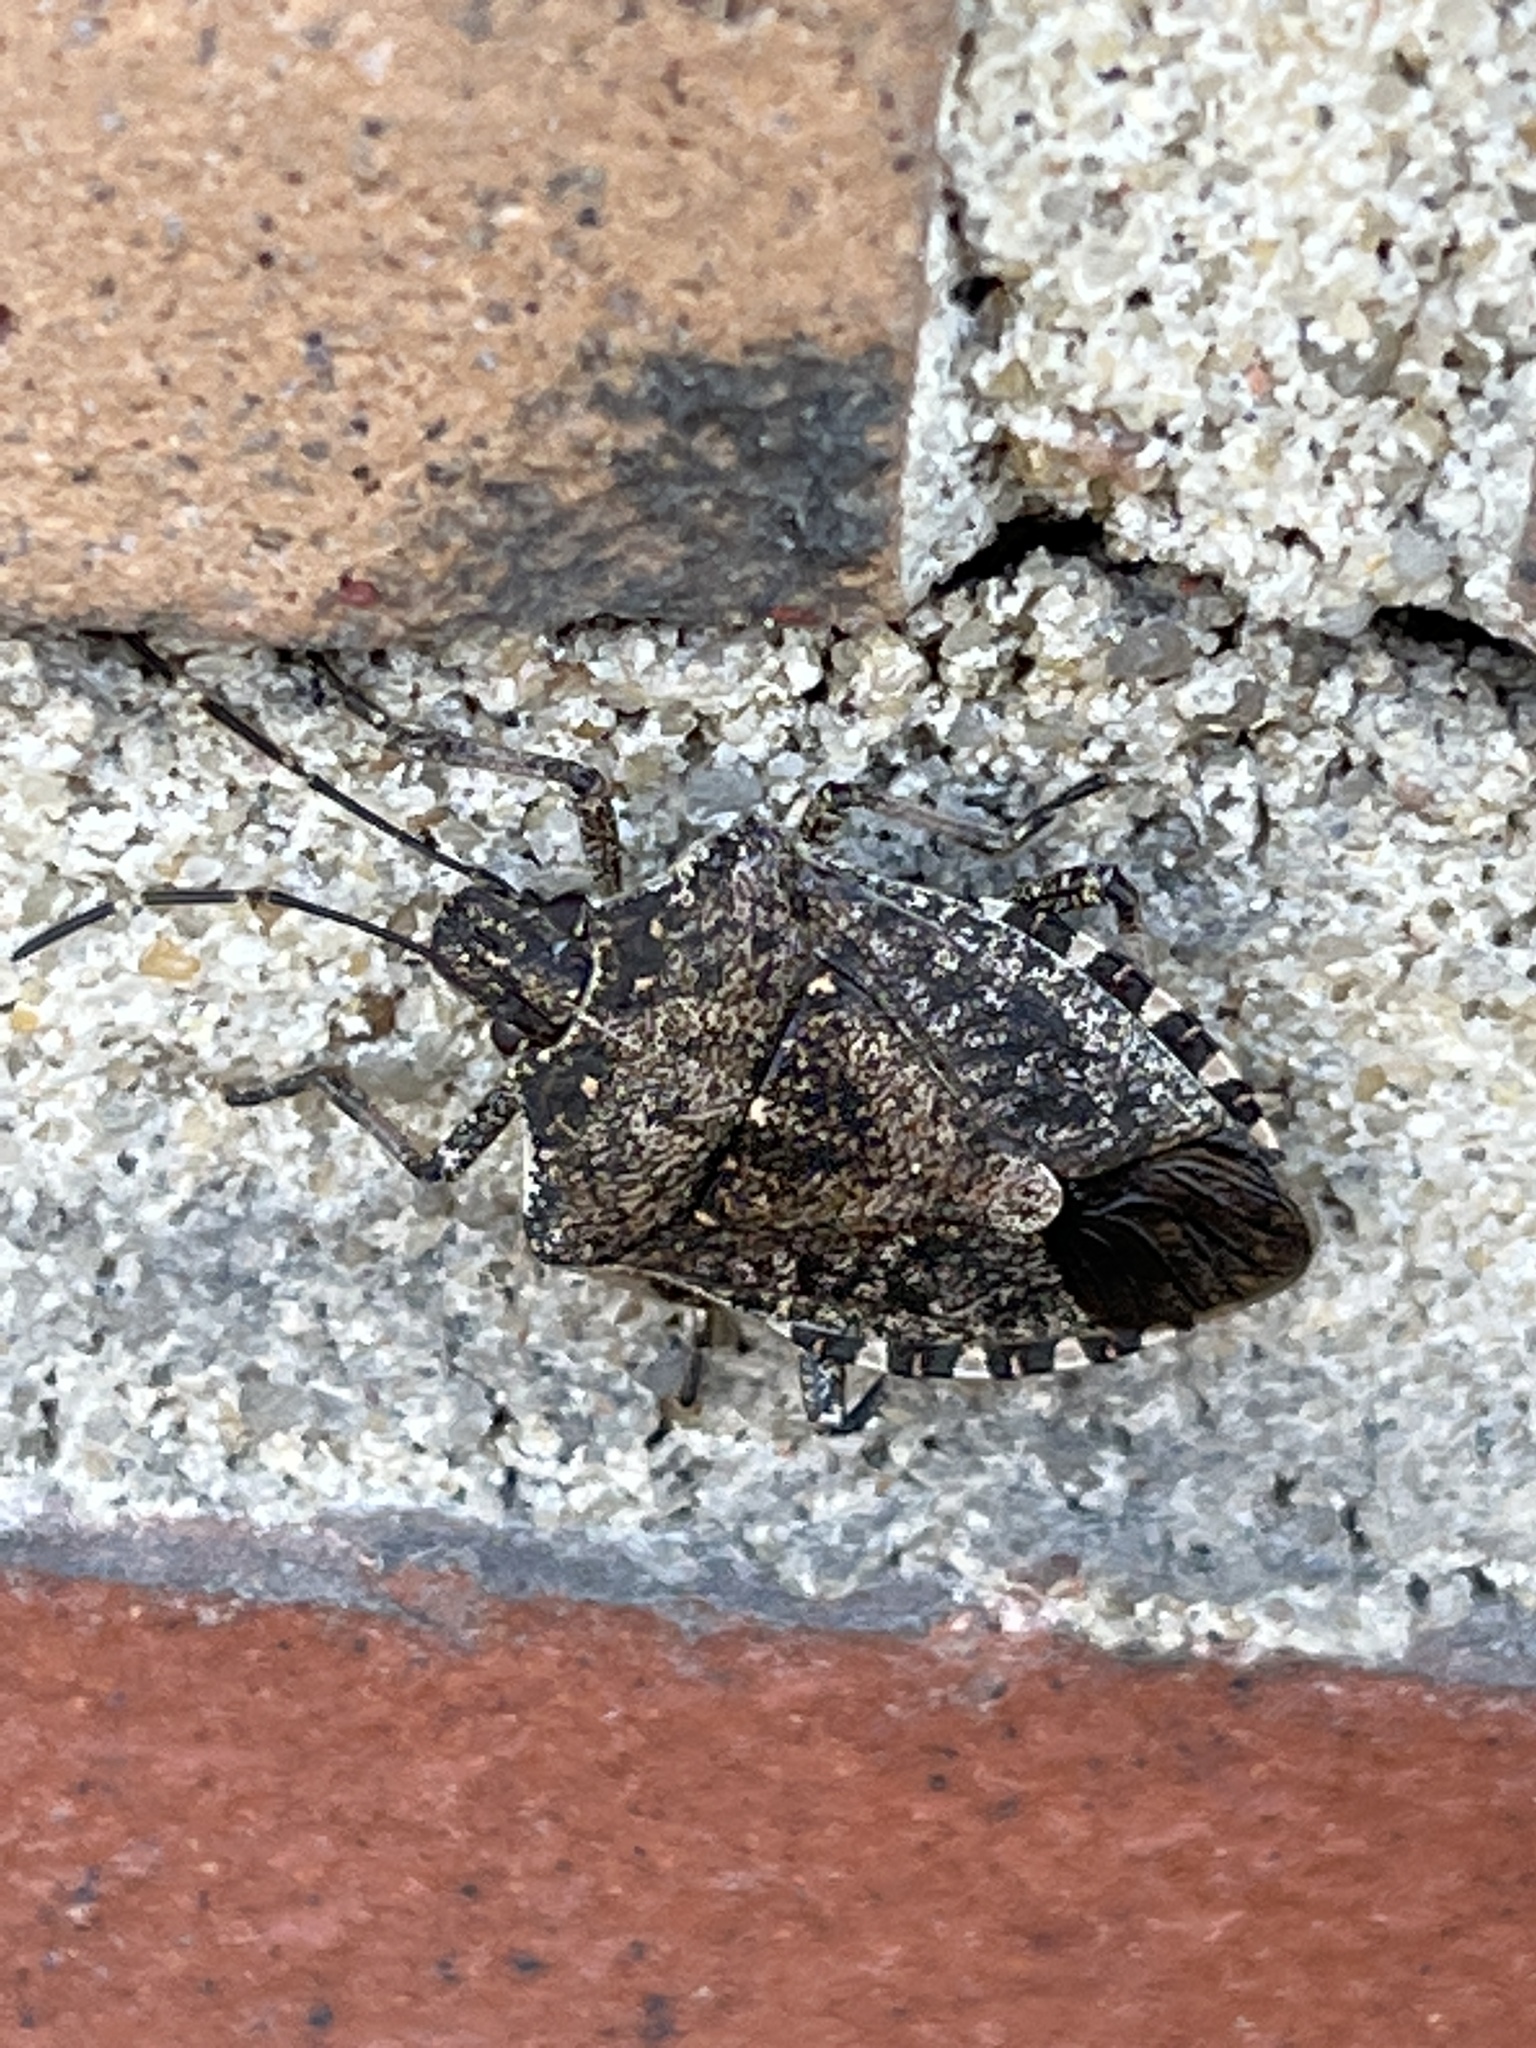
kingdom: Animalia
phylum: Arthropoda
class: Insecta
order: Hemiptera
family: Pentatomidae
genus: Halyomorpha
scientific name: Halyomorpha halys
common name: Brown marmorated stink bug
